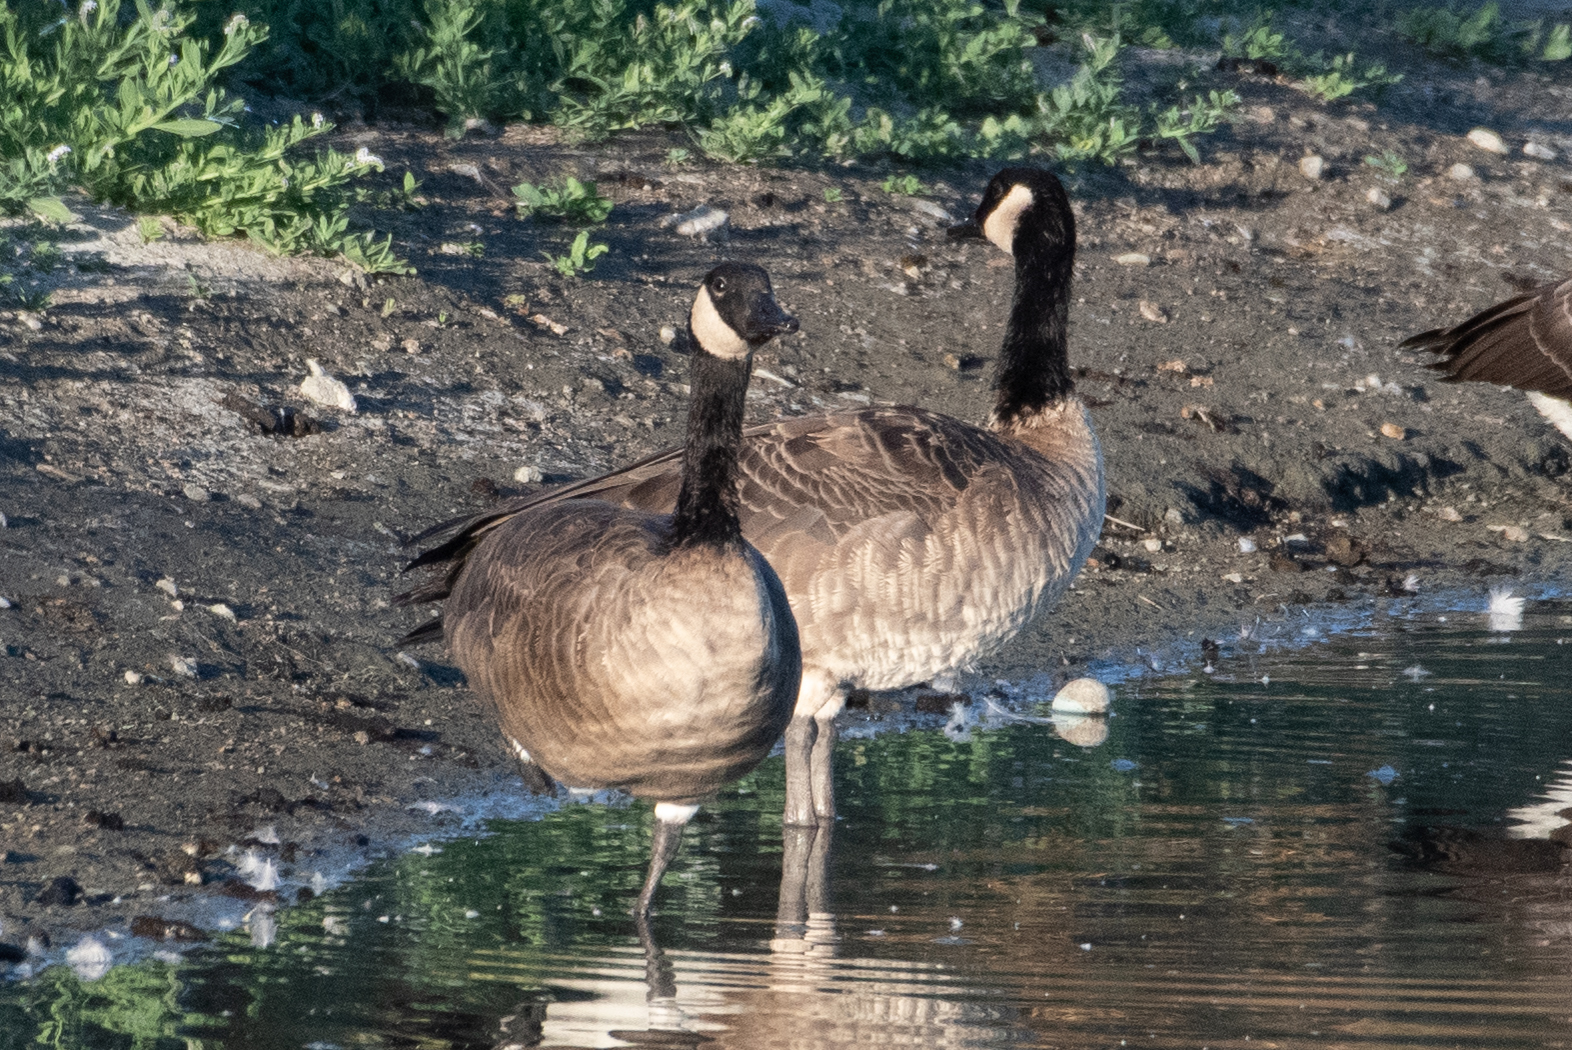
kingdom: Animalia
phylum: Chordata
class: Aves
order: Anseriformes
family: Anatidae
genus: Branta
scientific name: Branta canadensis
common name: Canada goose
